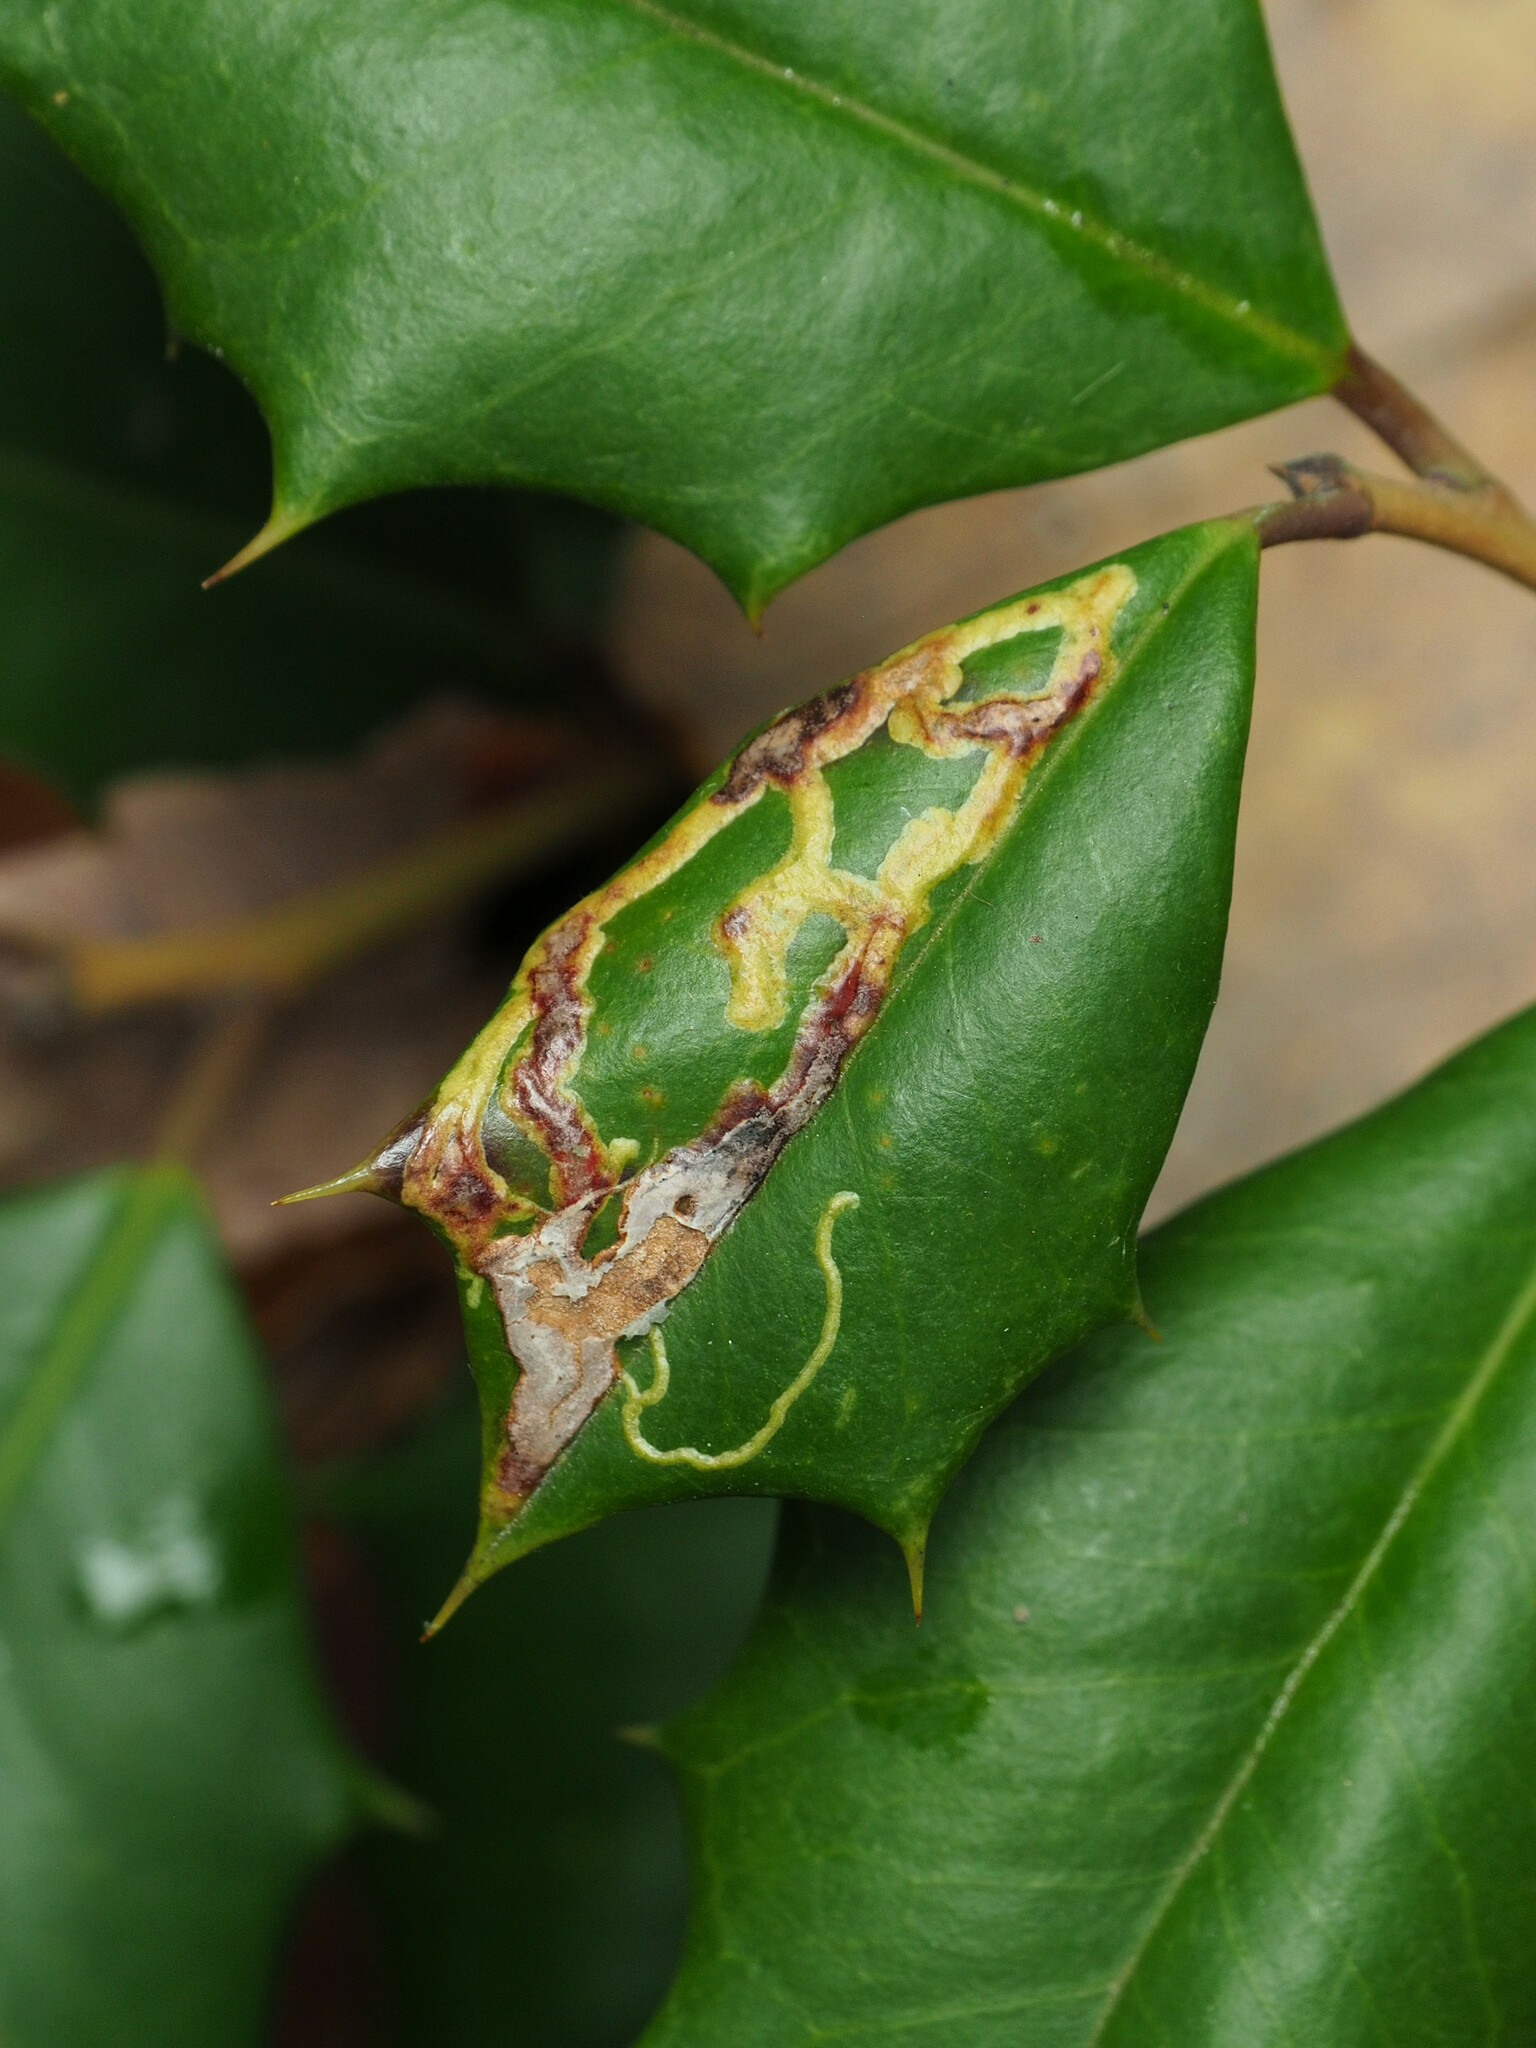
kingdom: Animalia
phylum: Arthropoda
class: Insecta
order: Diptera
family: Agromyzidae
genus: Phytomyza
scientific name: Phytomyza opacae
